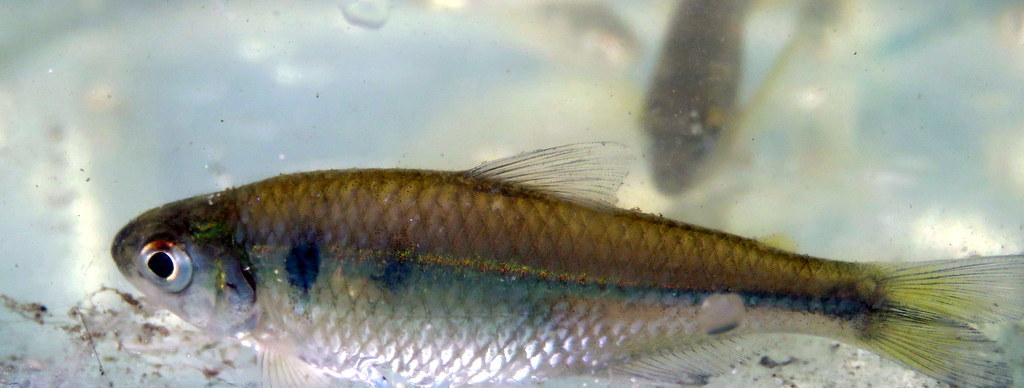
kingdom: Animalia
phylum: Chordata
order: Characiformes
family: Characidae
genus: Bryconamericus
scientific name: Bryconamericus iheringii
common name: Tetra
